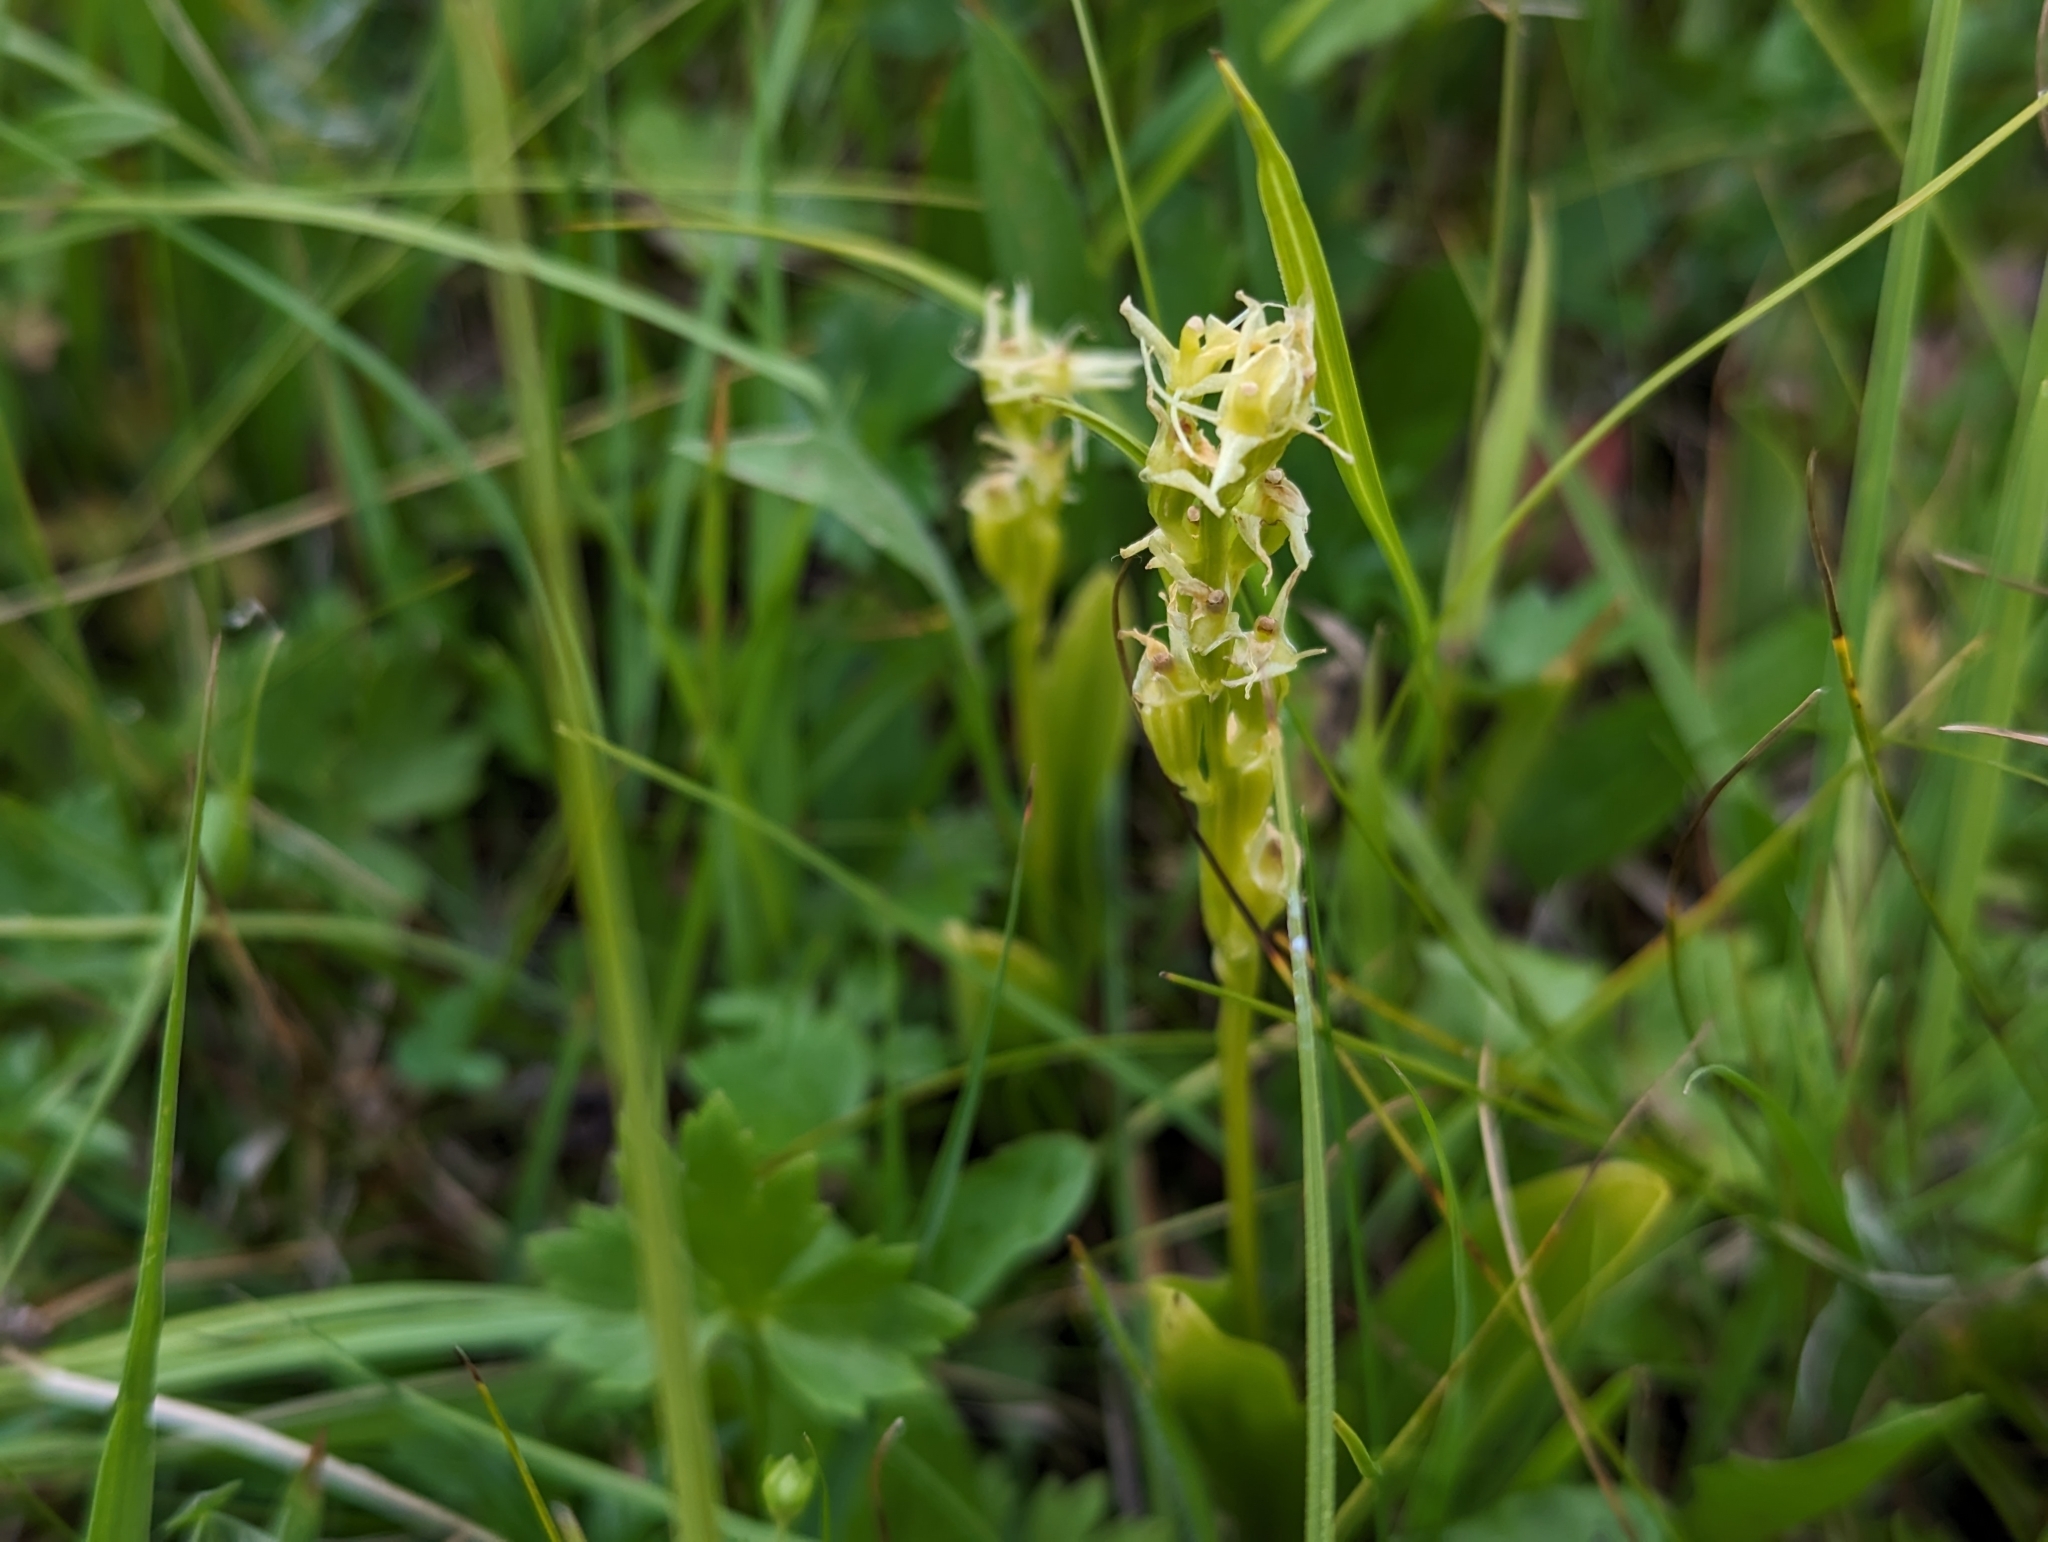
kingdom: Animalia
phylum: Arthropoda
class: Insecta
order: Coleoptera
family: Curculionidae
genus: Liparis
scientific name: Liparis loeselii
